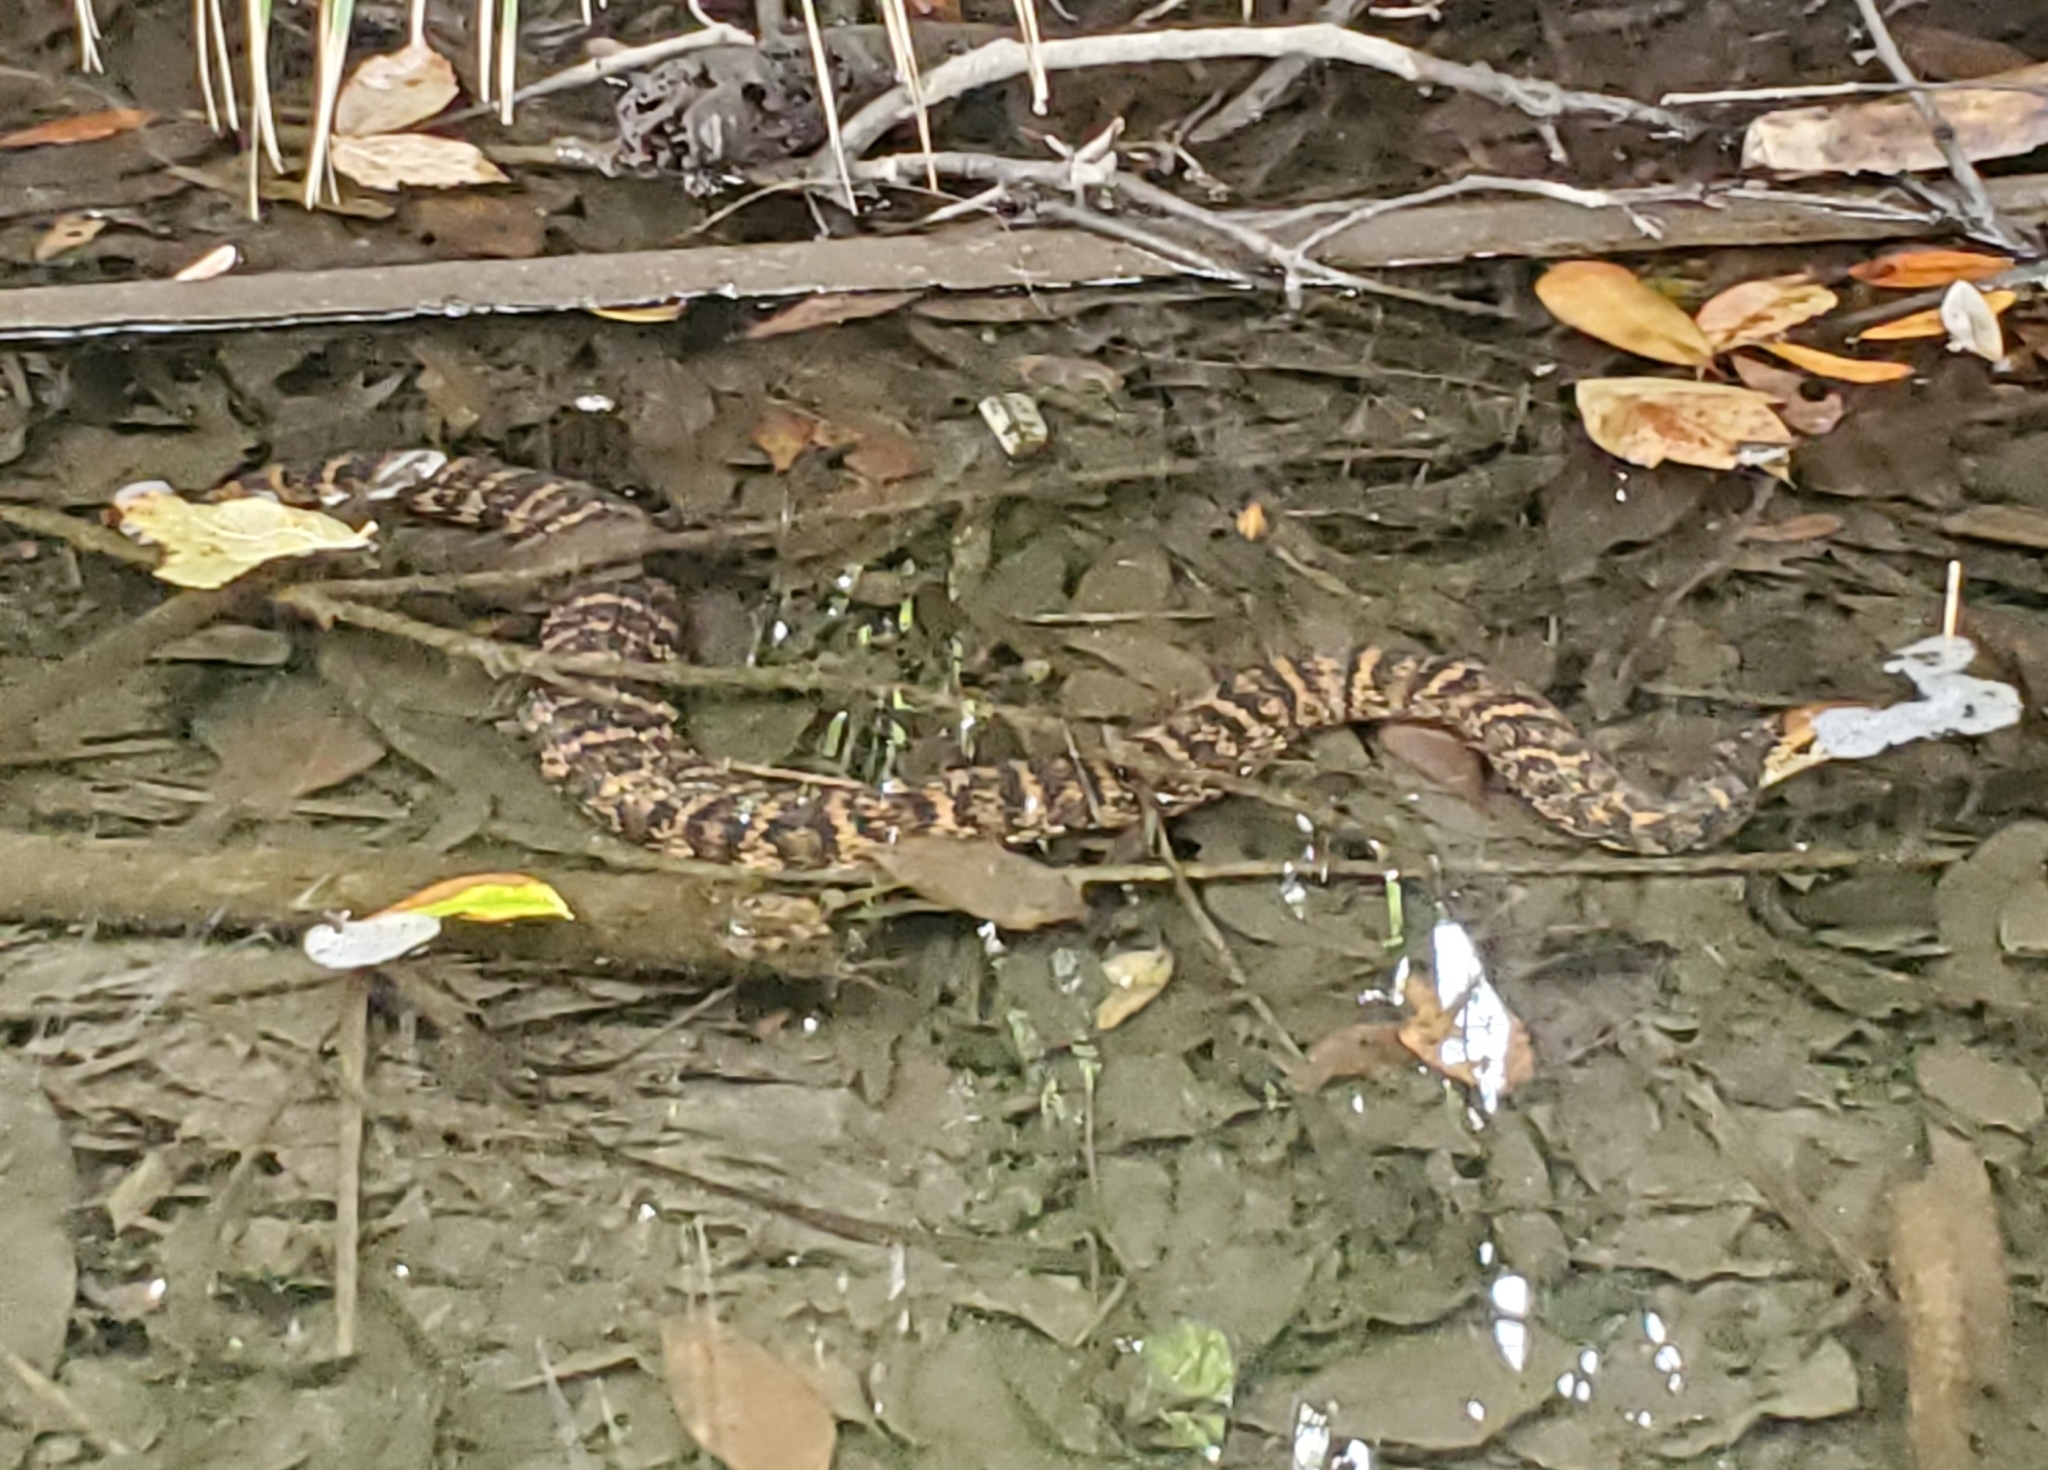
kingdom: Animalia
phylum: Chordata
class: Squamata
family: Colubridae
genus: Nerodia
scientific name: Nerodia fasciata
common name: Southern water snake
